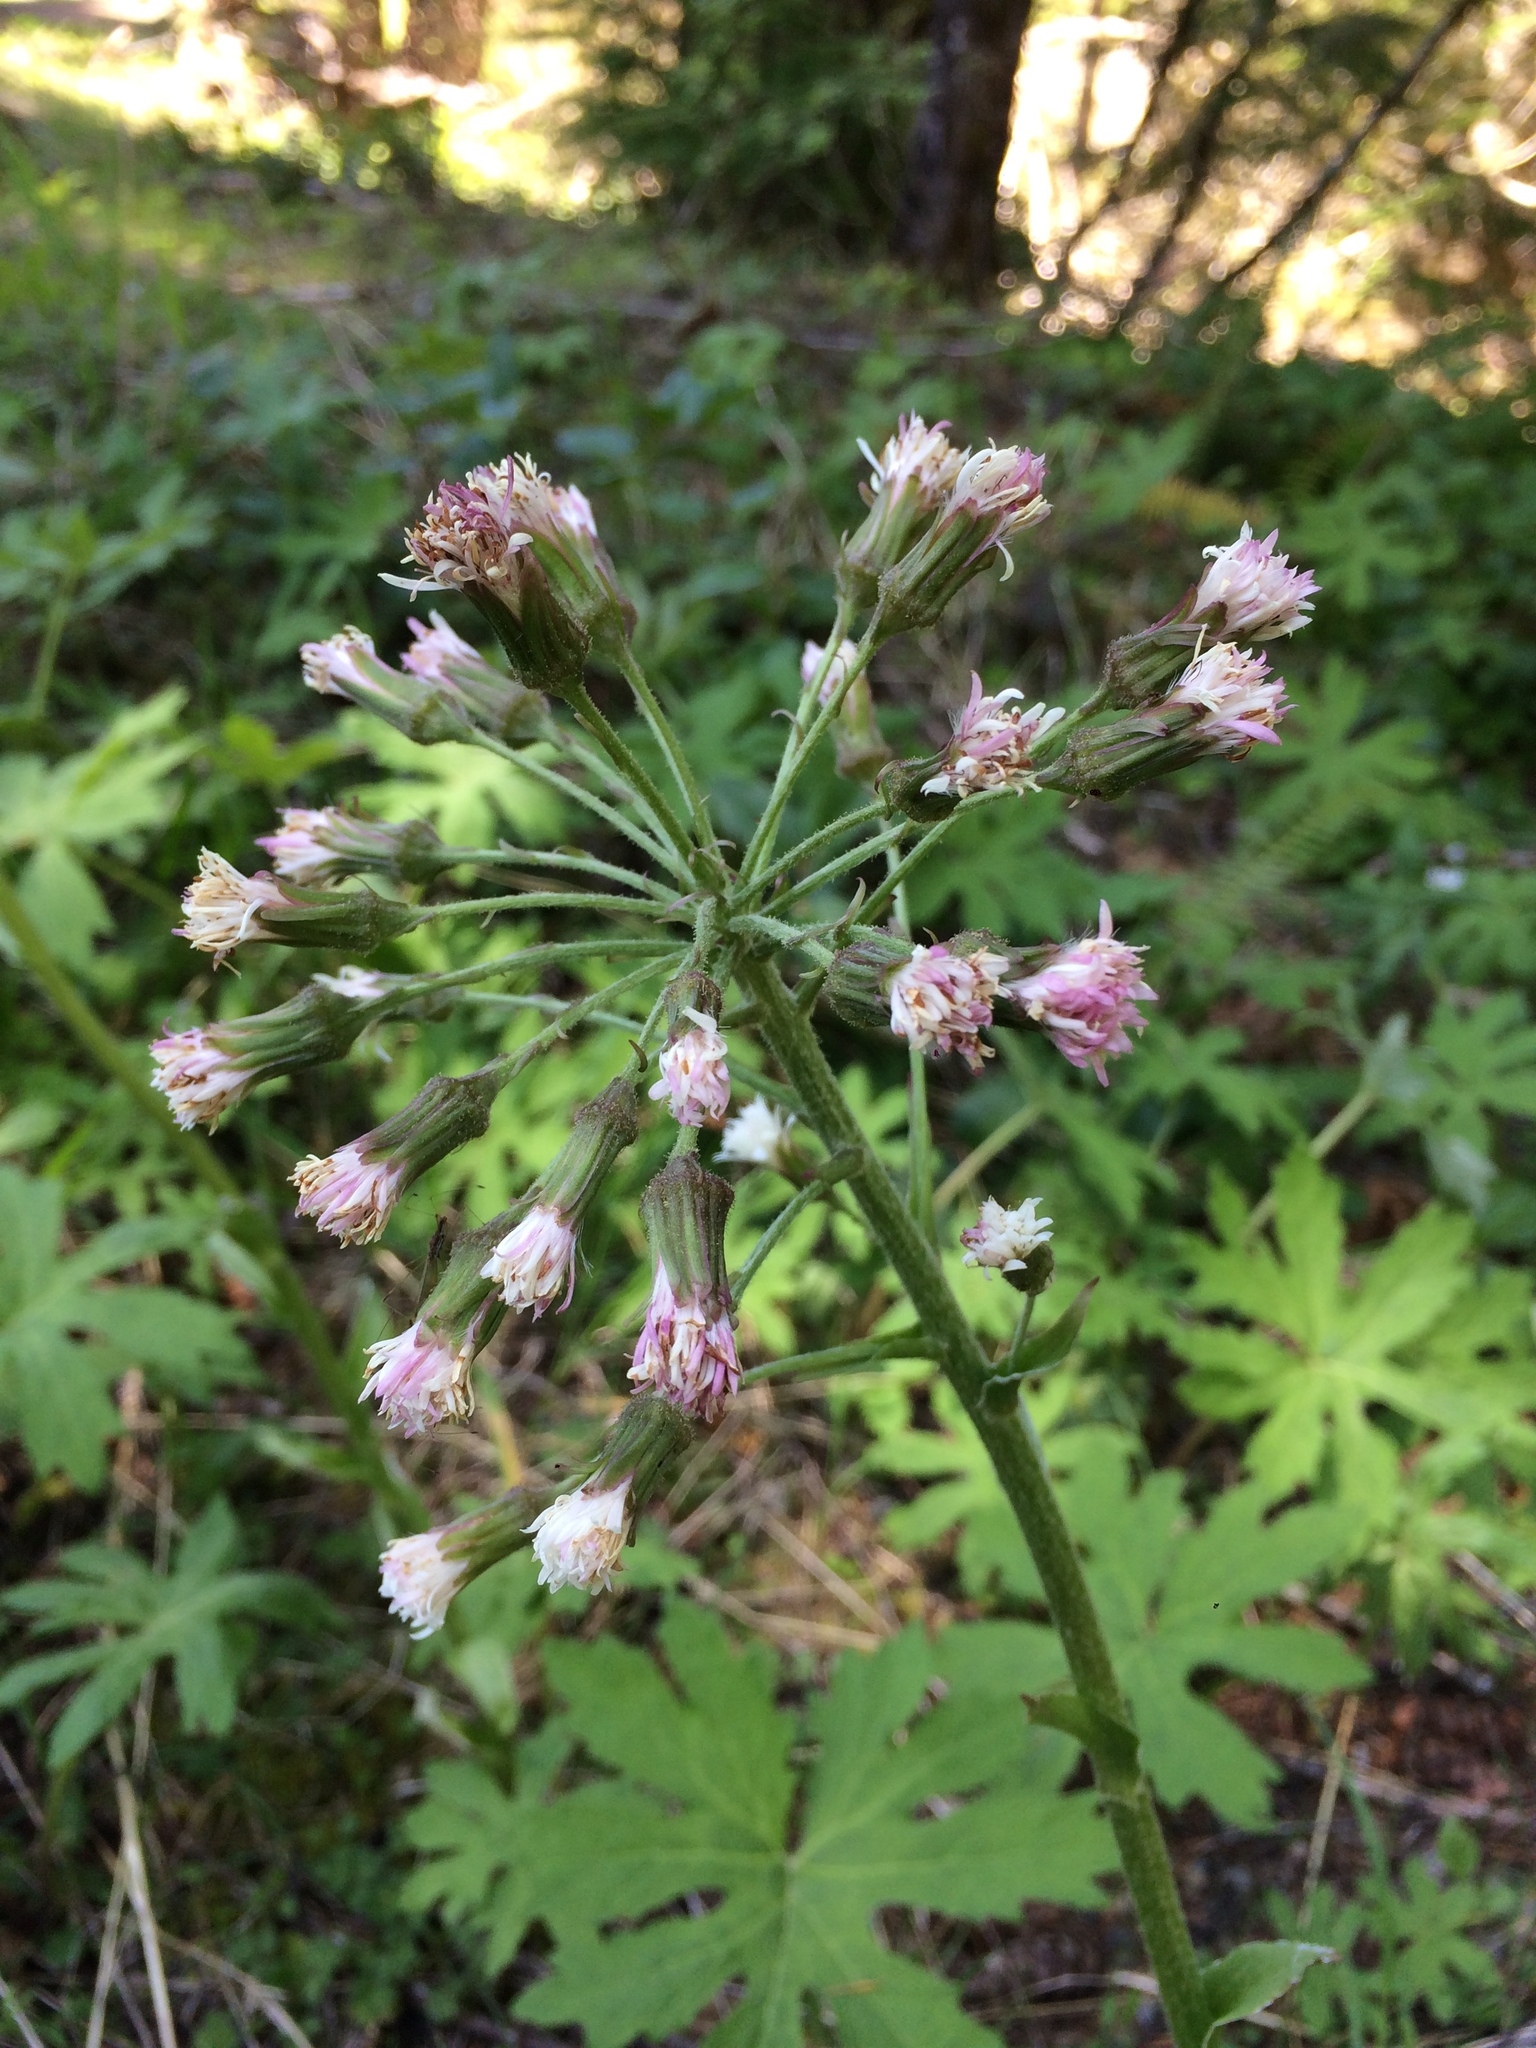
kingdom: Plantae
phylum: Tracheophyta
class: Magnoliopsida
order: Asterales
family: Asteraceae
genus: Petasites
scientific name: Petasites frigidus
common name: Arctic butterbur
